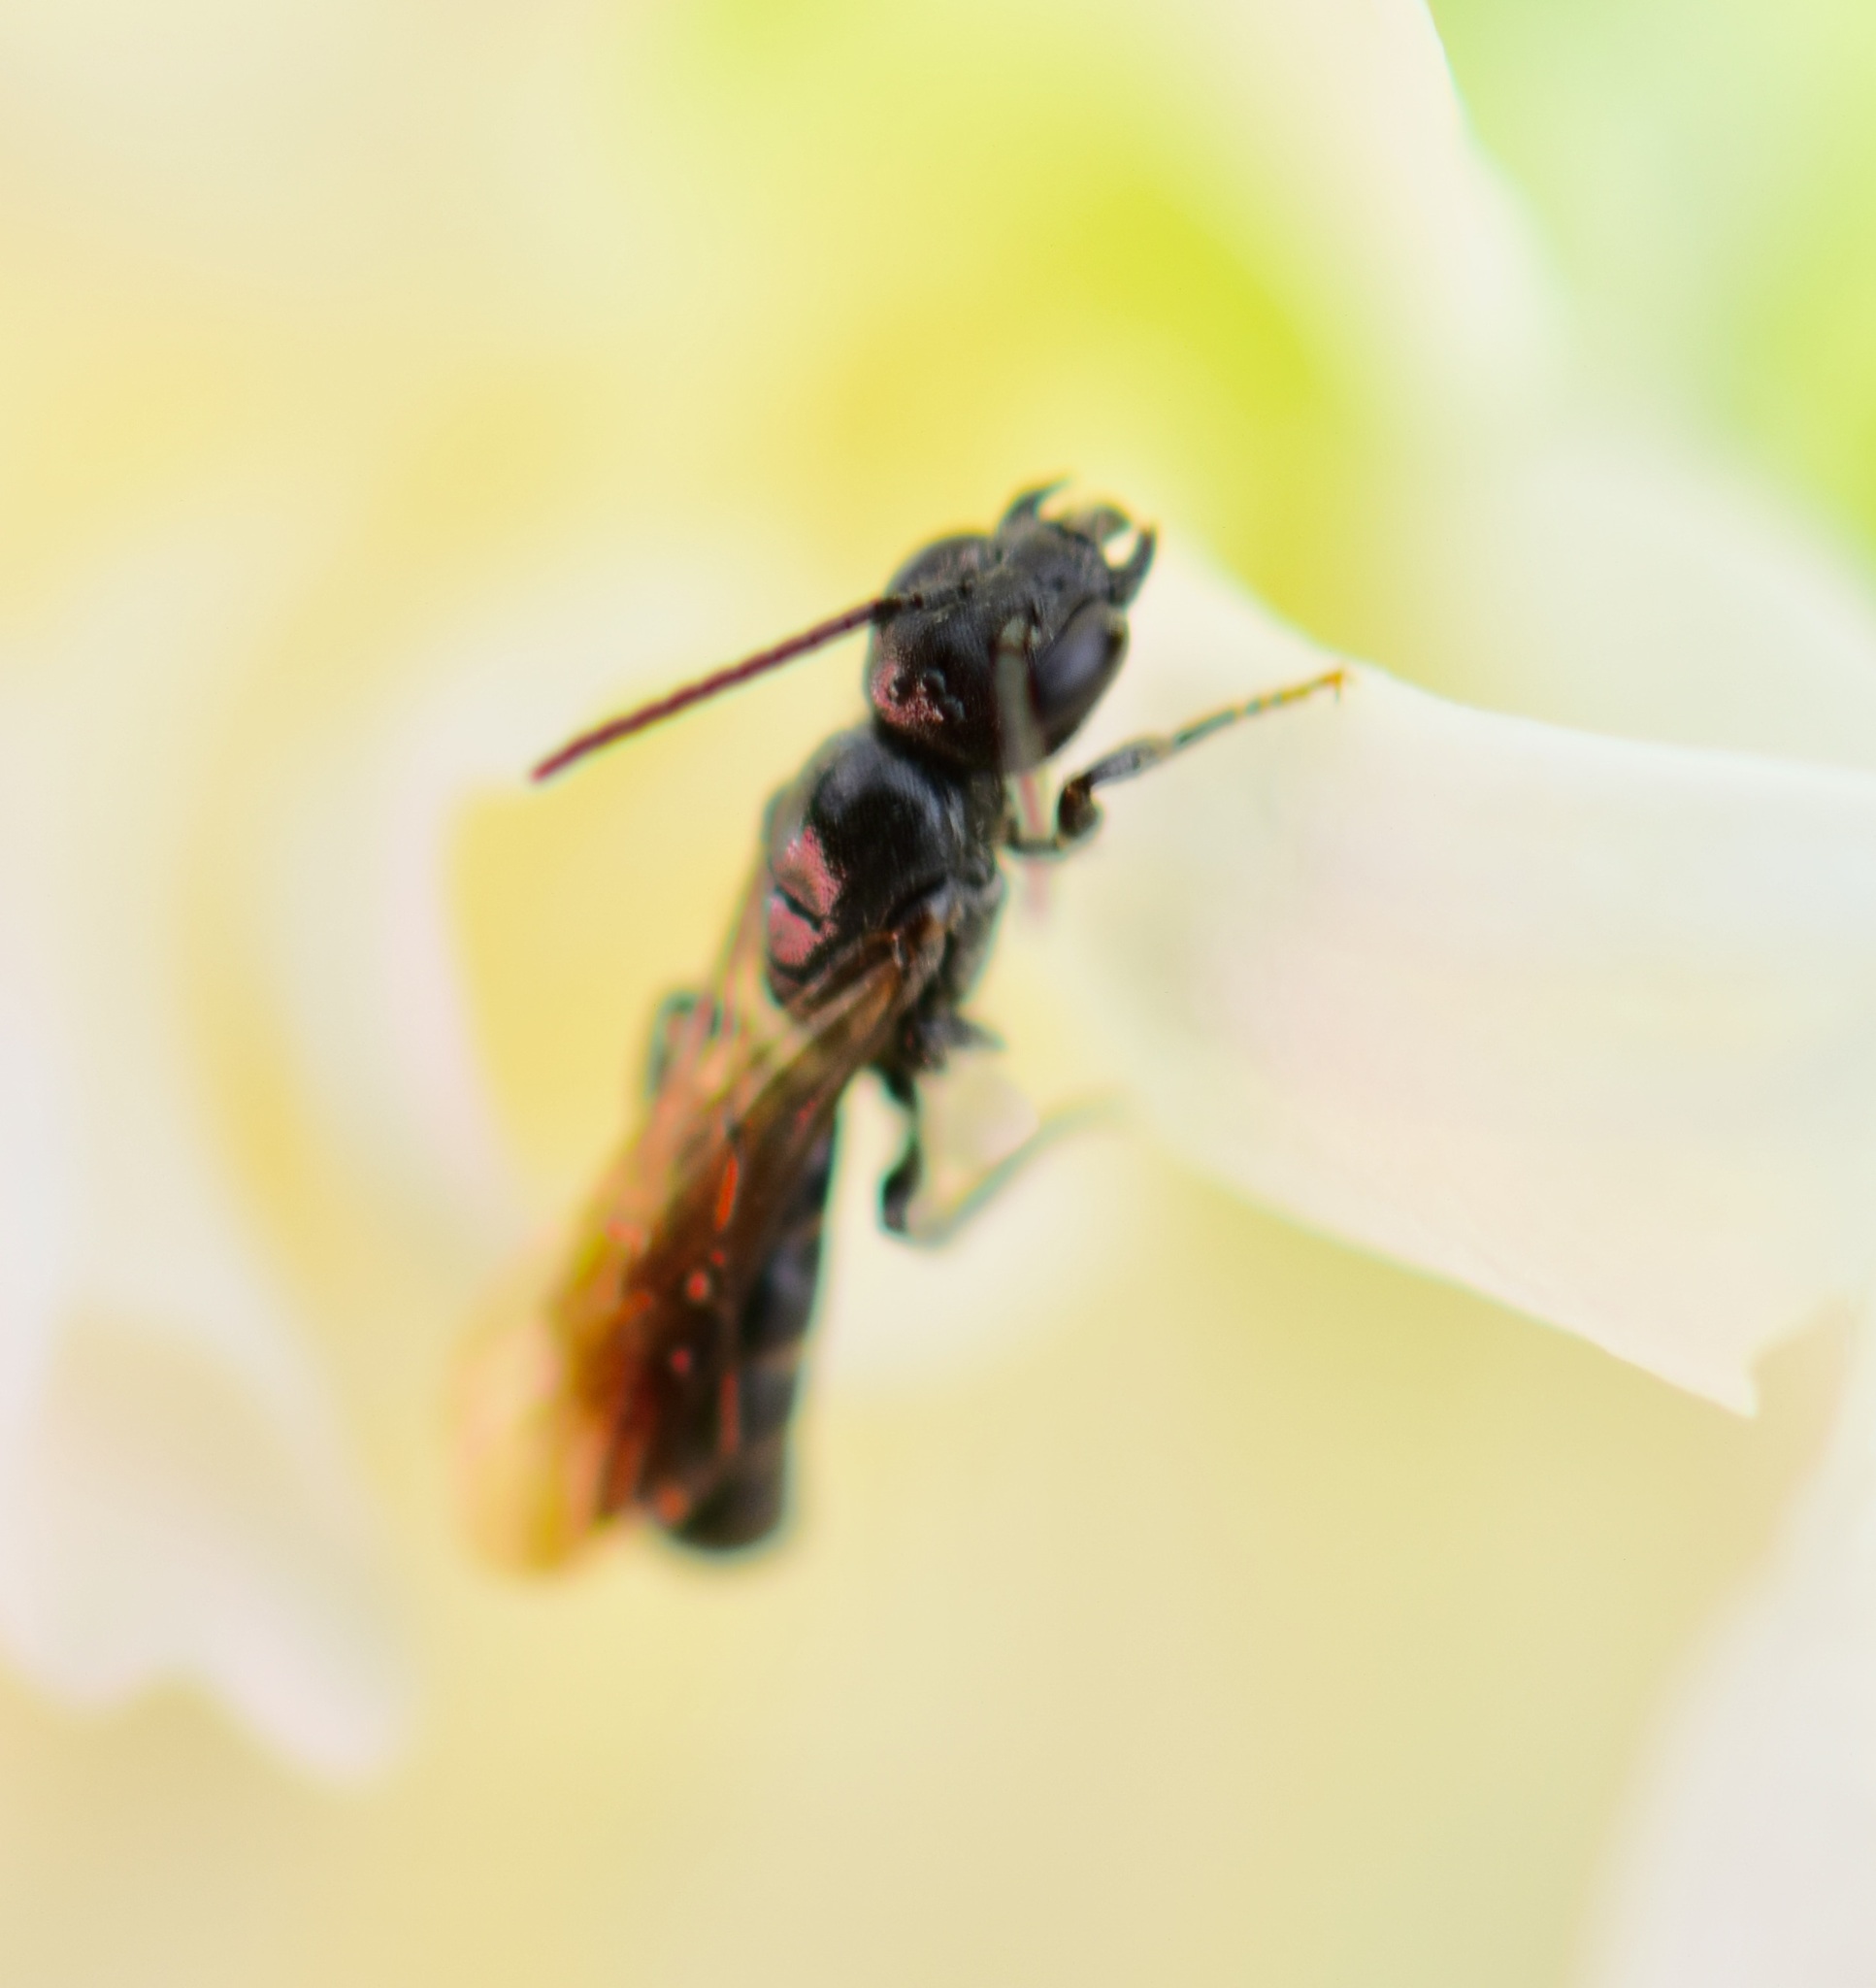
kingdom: Animalia
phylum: Arthropoda
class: Insecta
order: Hymenoptera
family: Megachilidae
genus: Chelostoma
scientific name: Chelostoma philadelphi
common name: Mock-orange scissor bee
